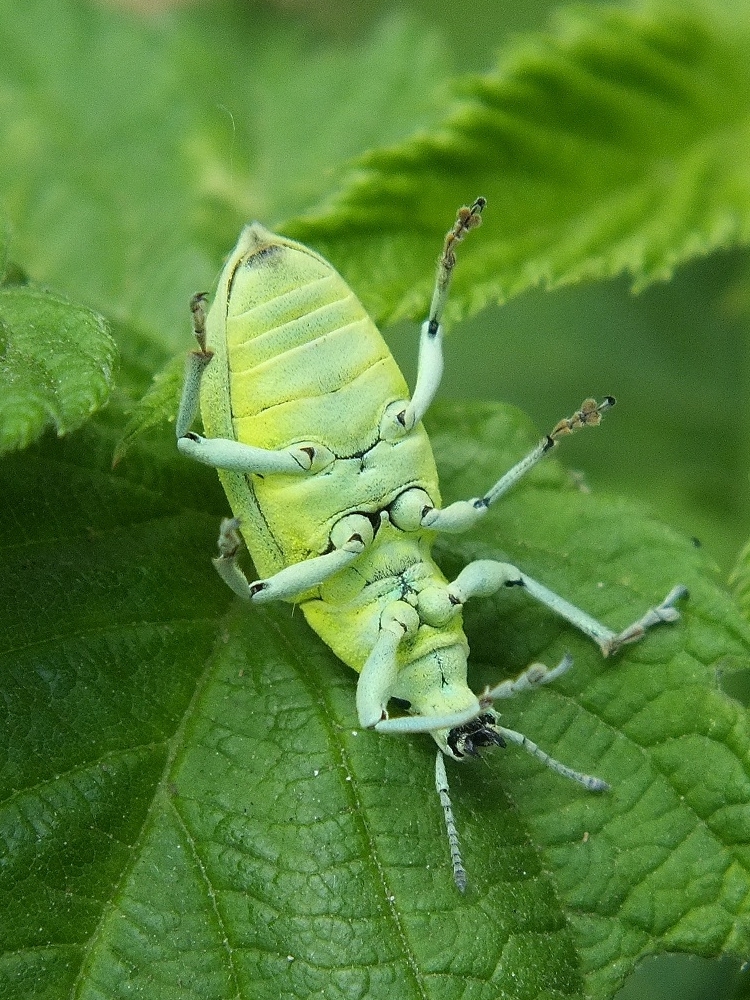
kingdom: Animalia
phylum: Arthropoda
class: Insecta
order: Coleoptera
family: Curculionidae
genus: Chlorophanus
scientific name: Chlorophanus micans
